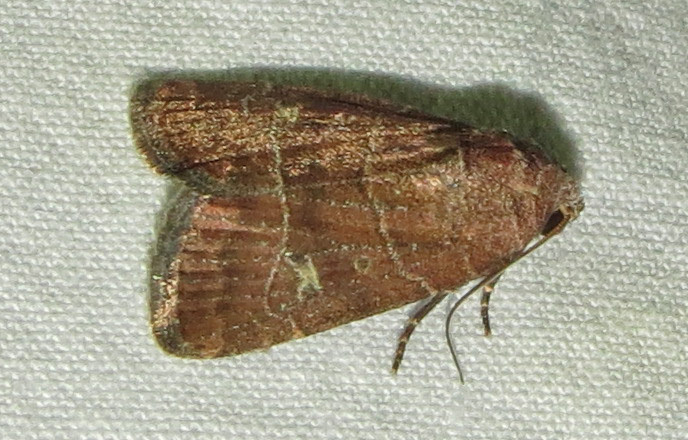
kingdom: Animalia
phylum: Arthropoda
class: Insecta
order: Lepidoptera
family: Noctuidae
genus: Elaphria
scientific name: Elaphria grata
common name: Grateful midget moth
